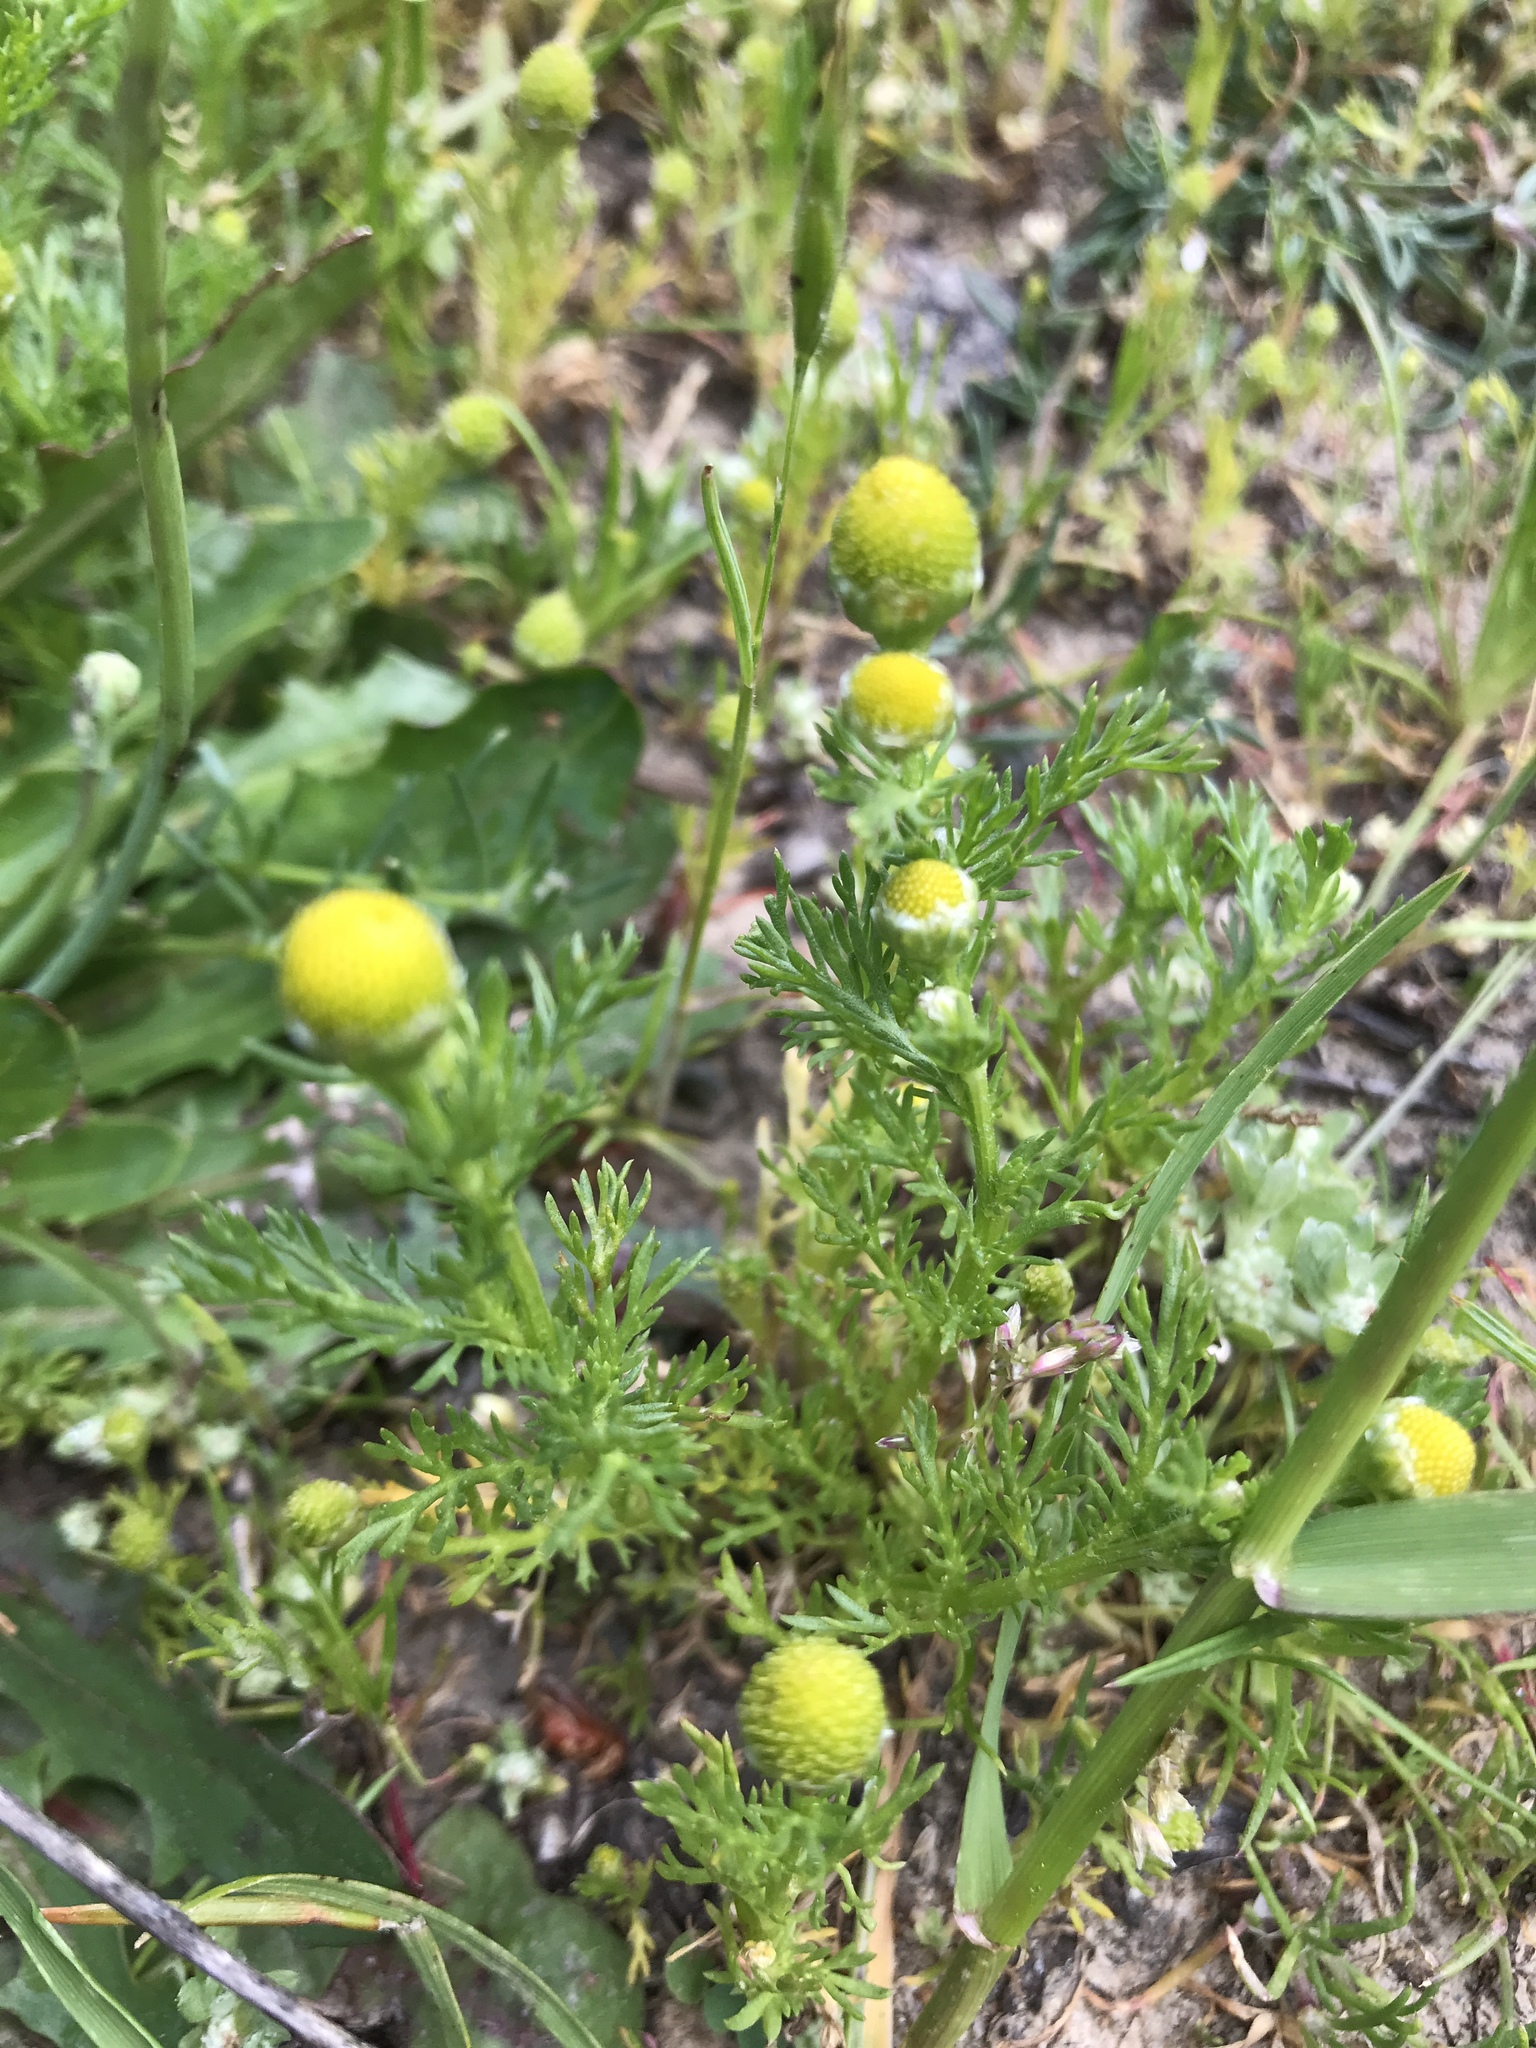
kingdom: Plantae
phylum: Tracheophyta
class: Magnoliopsida
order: Asterales
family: Asteraceae
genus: Matricaria
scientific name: Matricaria discoidea
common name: Disc mayweed
